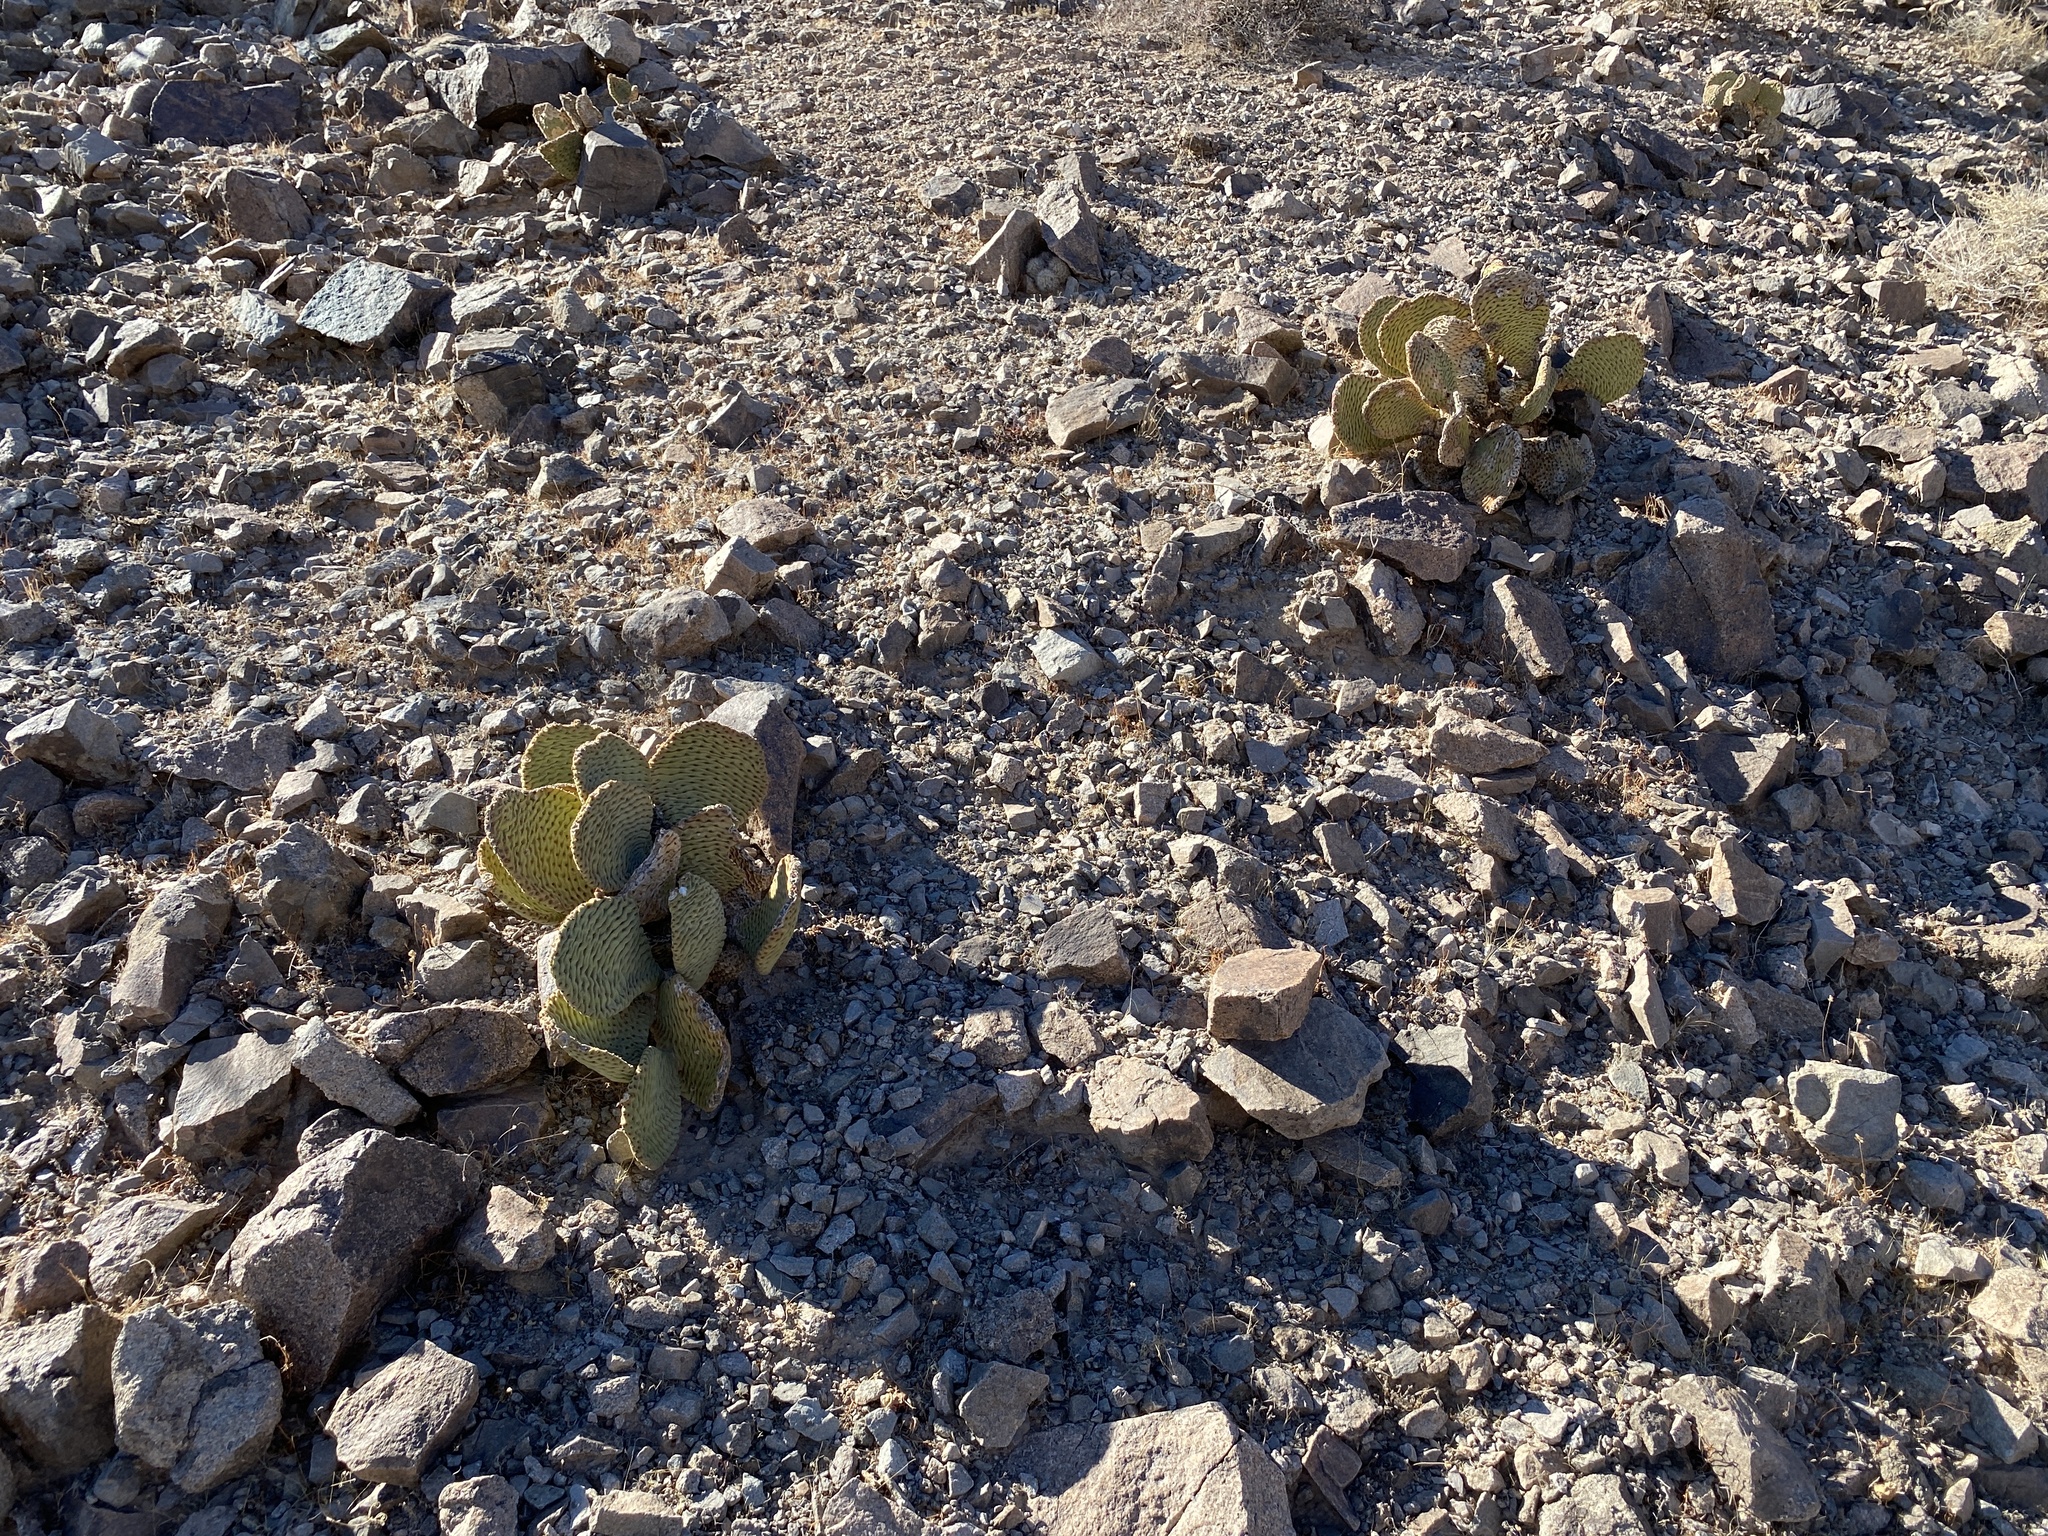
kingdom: Plantae
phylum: Tracheophyta
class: Magnoliopsida
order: Caryophyllales
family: Cactaceae
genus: Opuntia
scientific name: Opuntia basilaris
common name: Beavertail prickly-pear
